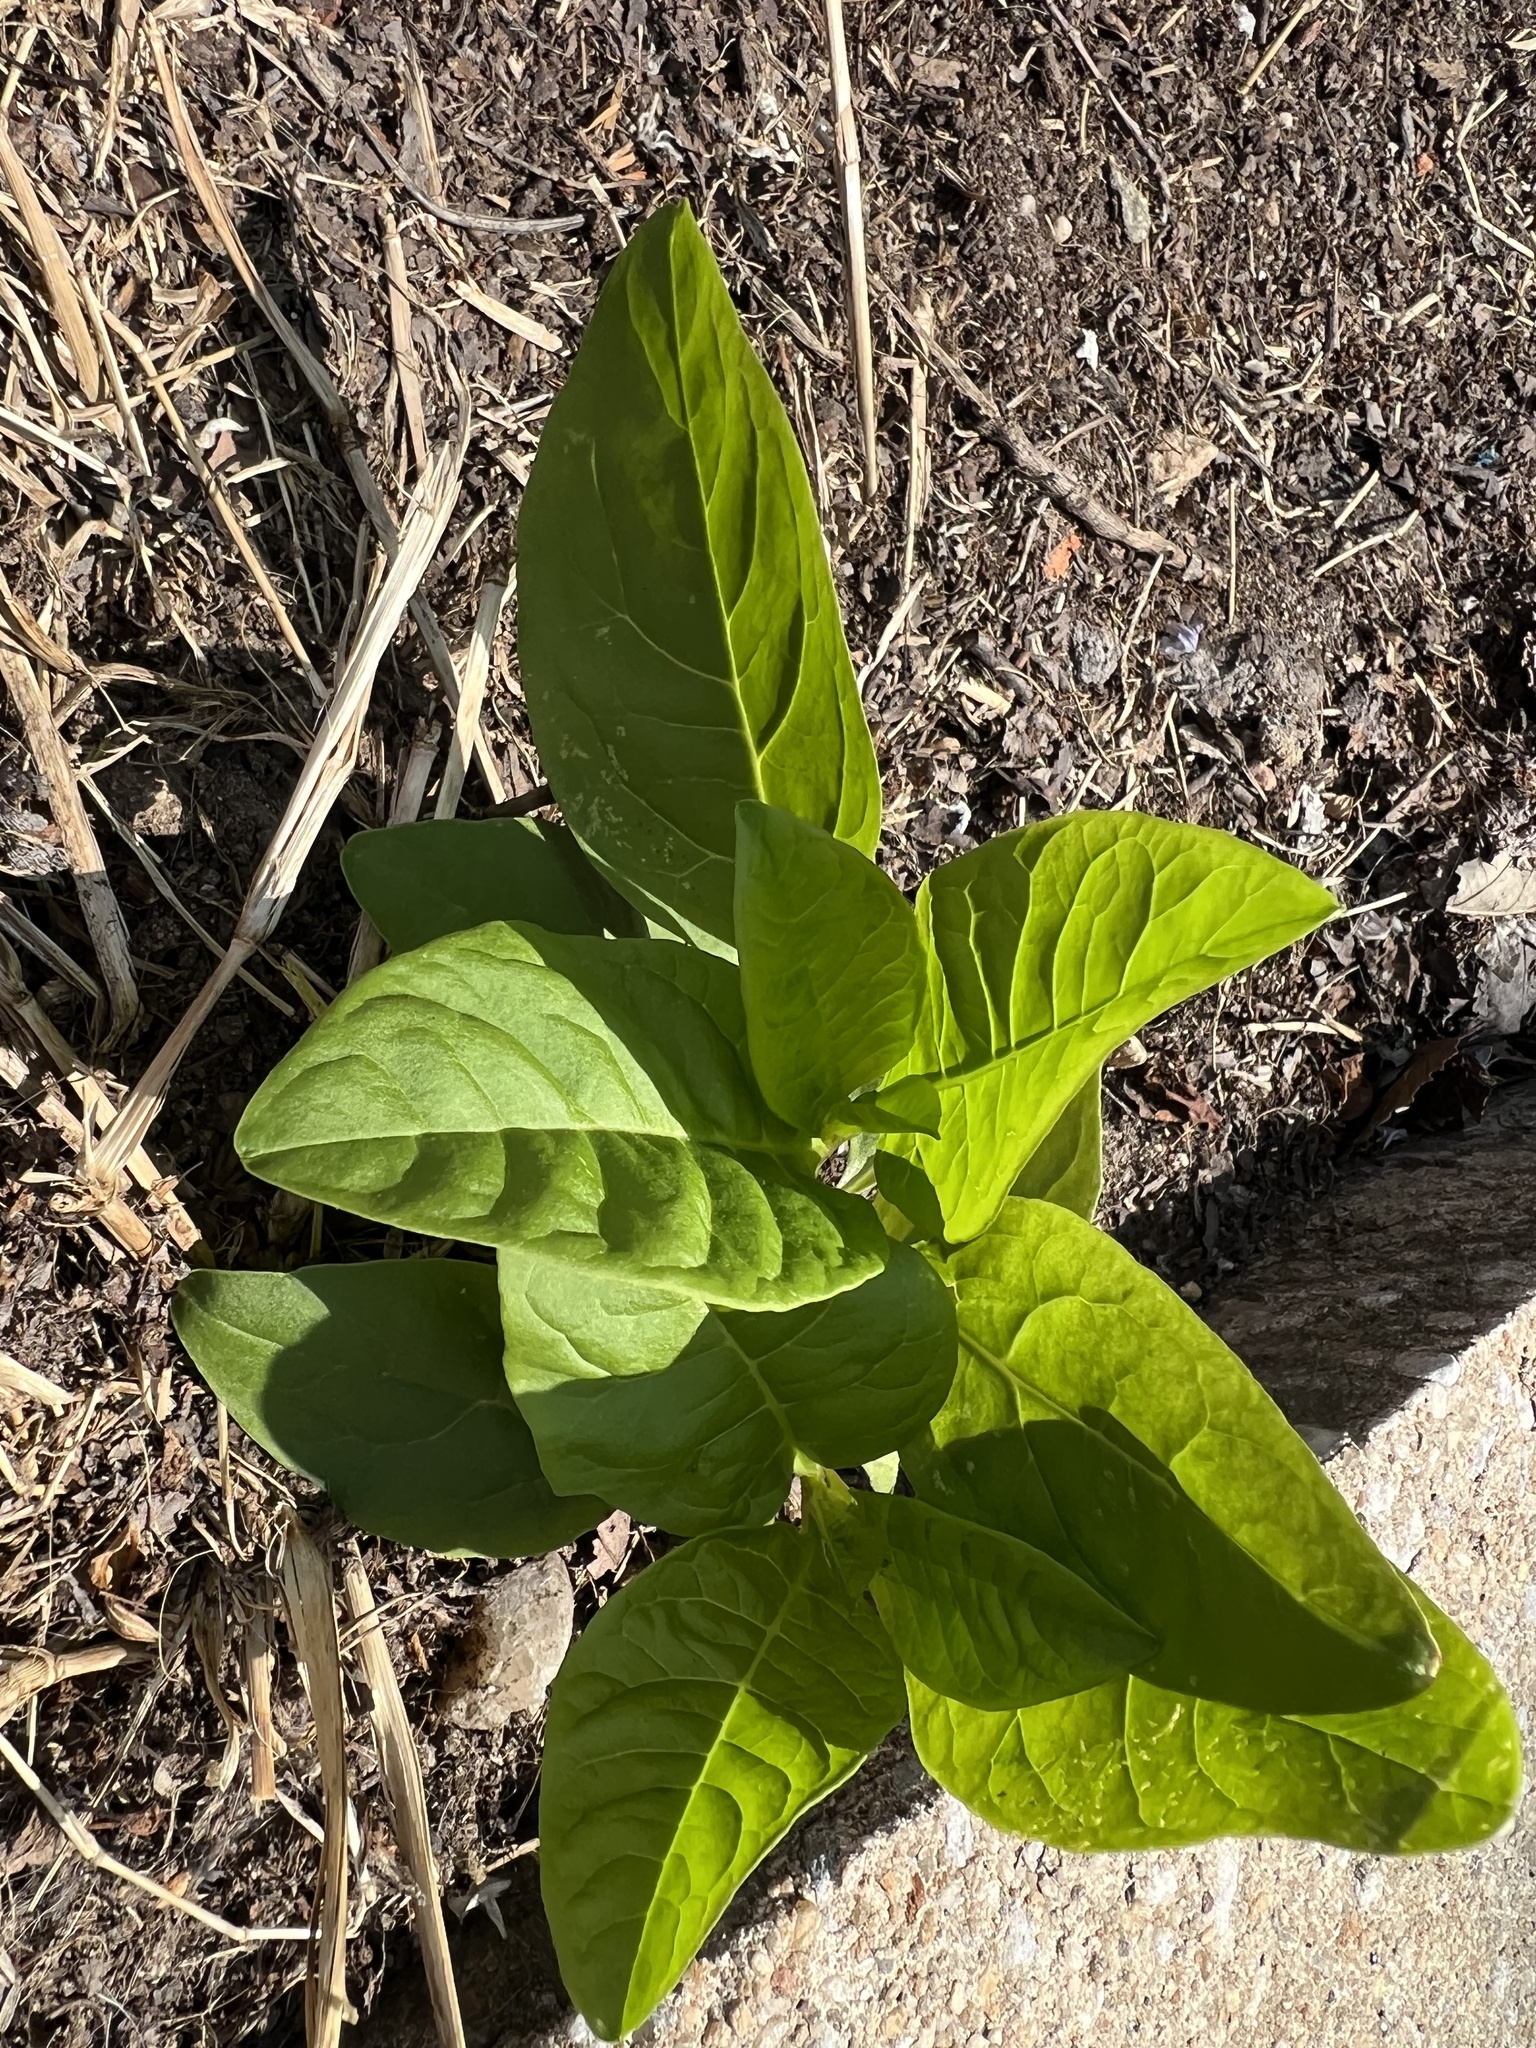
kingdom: Plantae
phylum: Tracheophyta
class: Magnoliopsida
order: Caryophyllales
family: Phytolaccaceae
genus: Phytolacca
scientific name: Phytolacca americana
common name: American pokeweed
